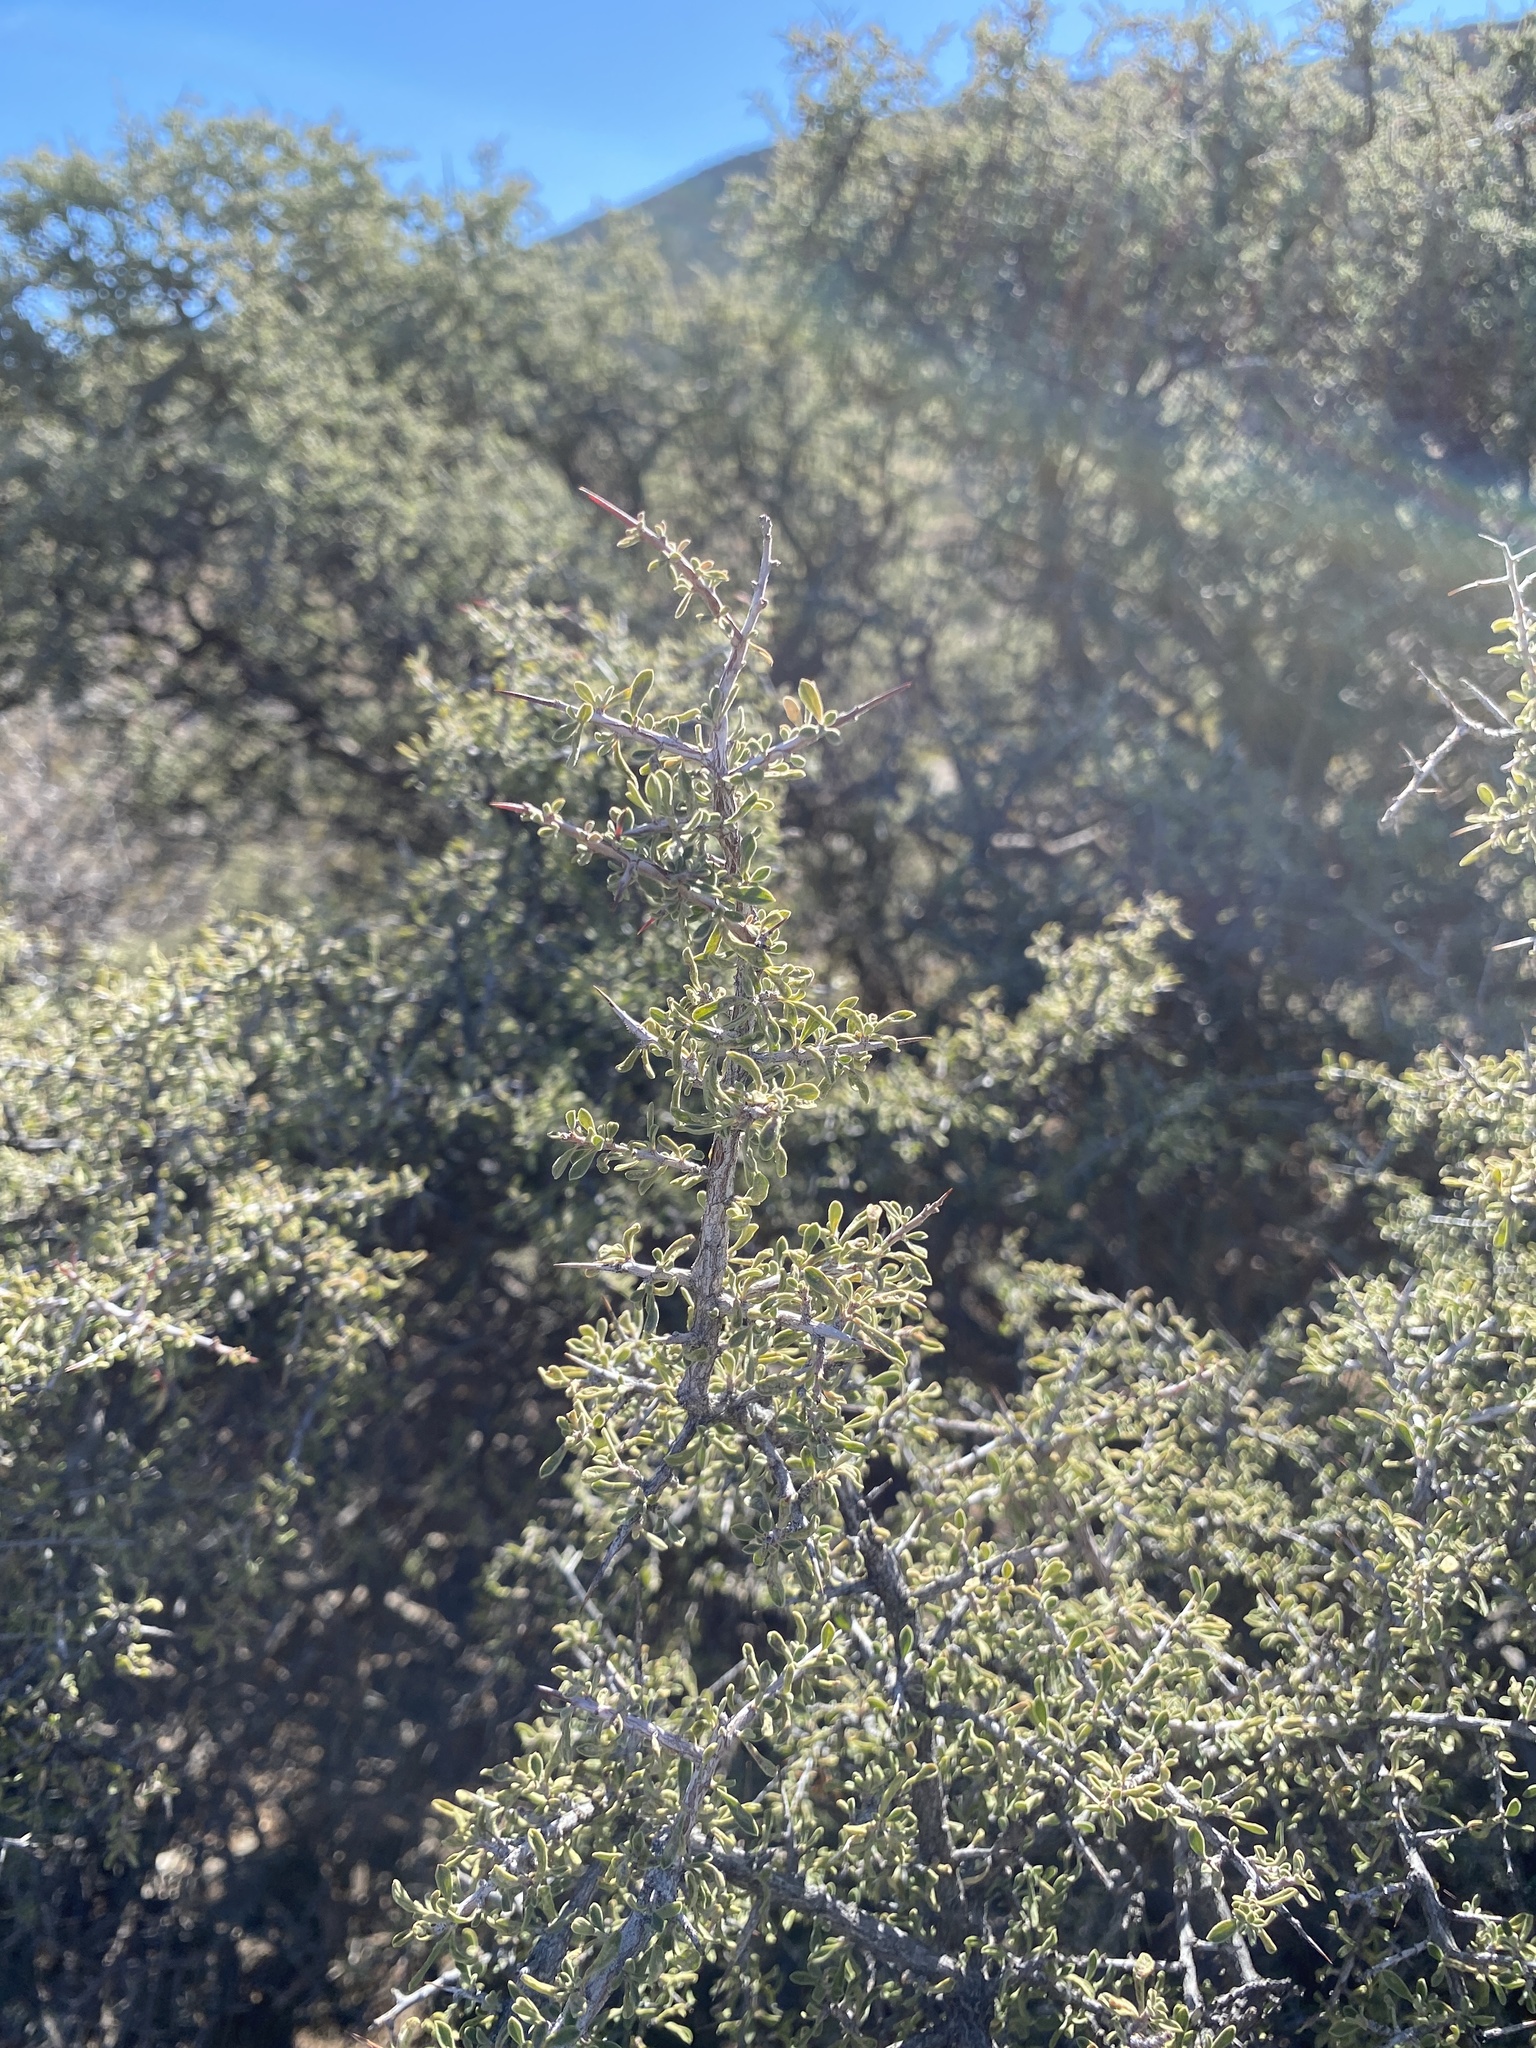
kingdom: Plantae
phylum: Tracheophyta
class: Magnoliopsida
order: Rosales
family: Rhamnaceae
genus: Condalia
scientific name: Condalia warnockii
